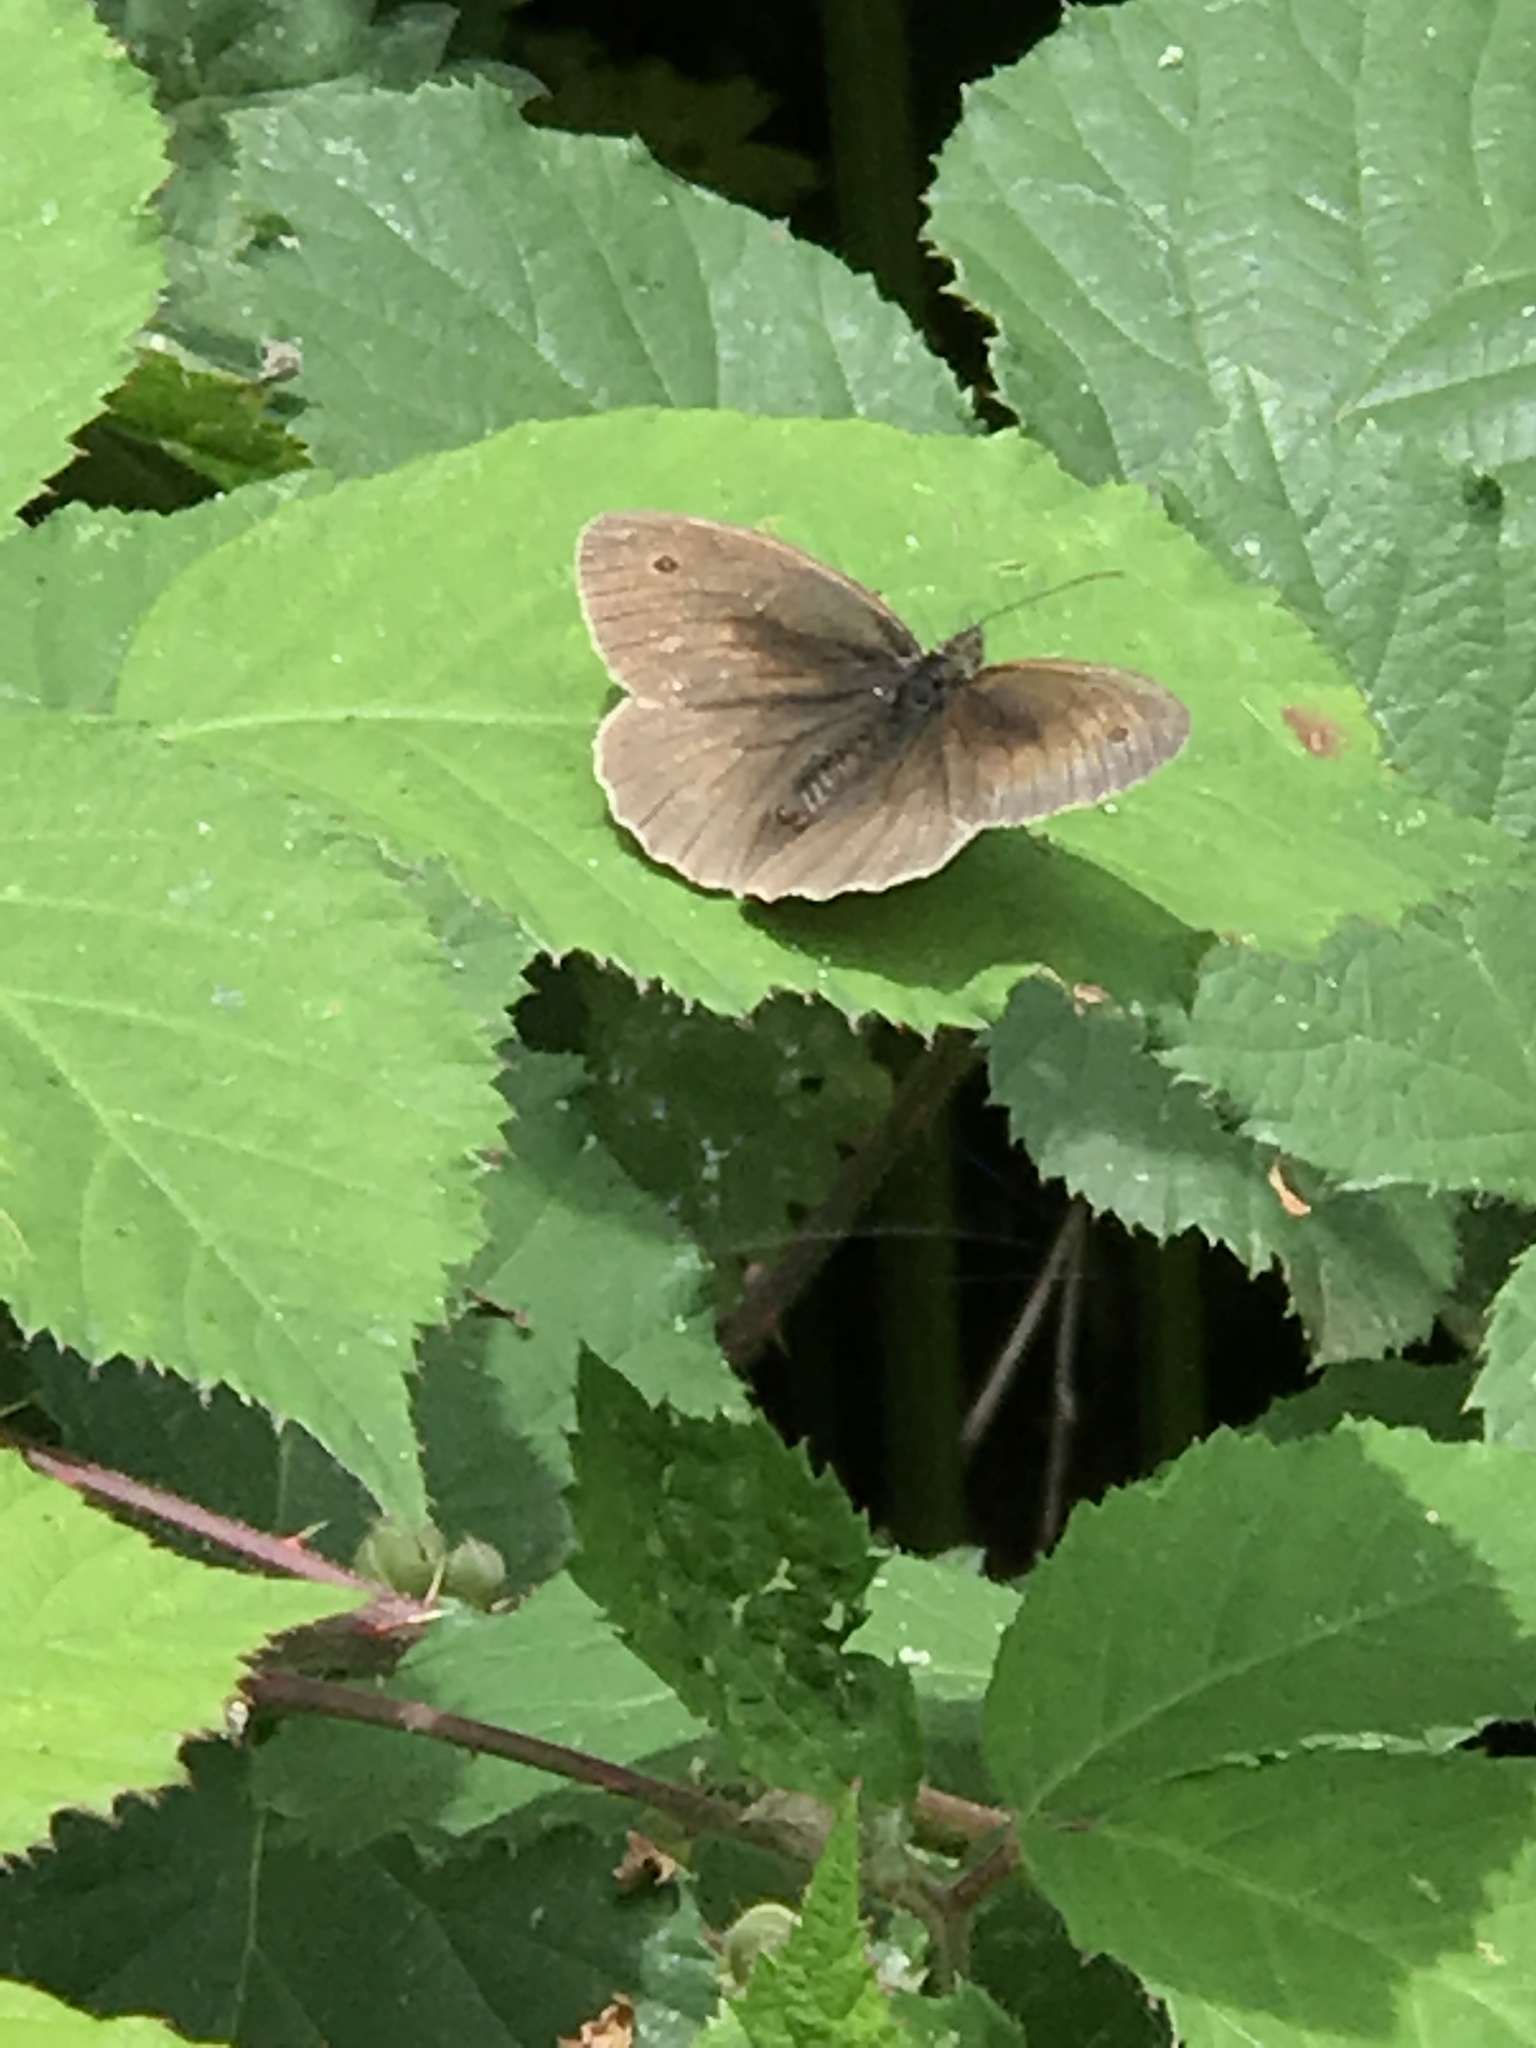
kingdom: Animalia
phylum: Arthropoda
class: Insecta
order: Lepidoptera
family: Nymphalidae
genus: Maniola
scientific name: Maniola jurtina
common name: Meadow brown
